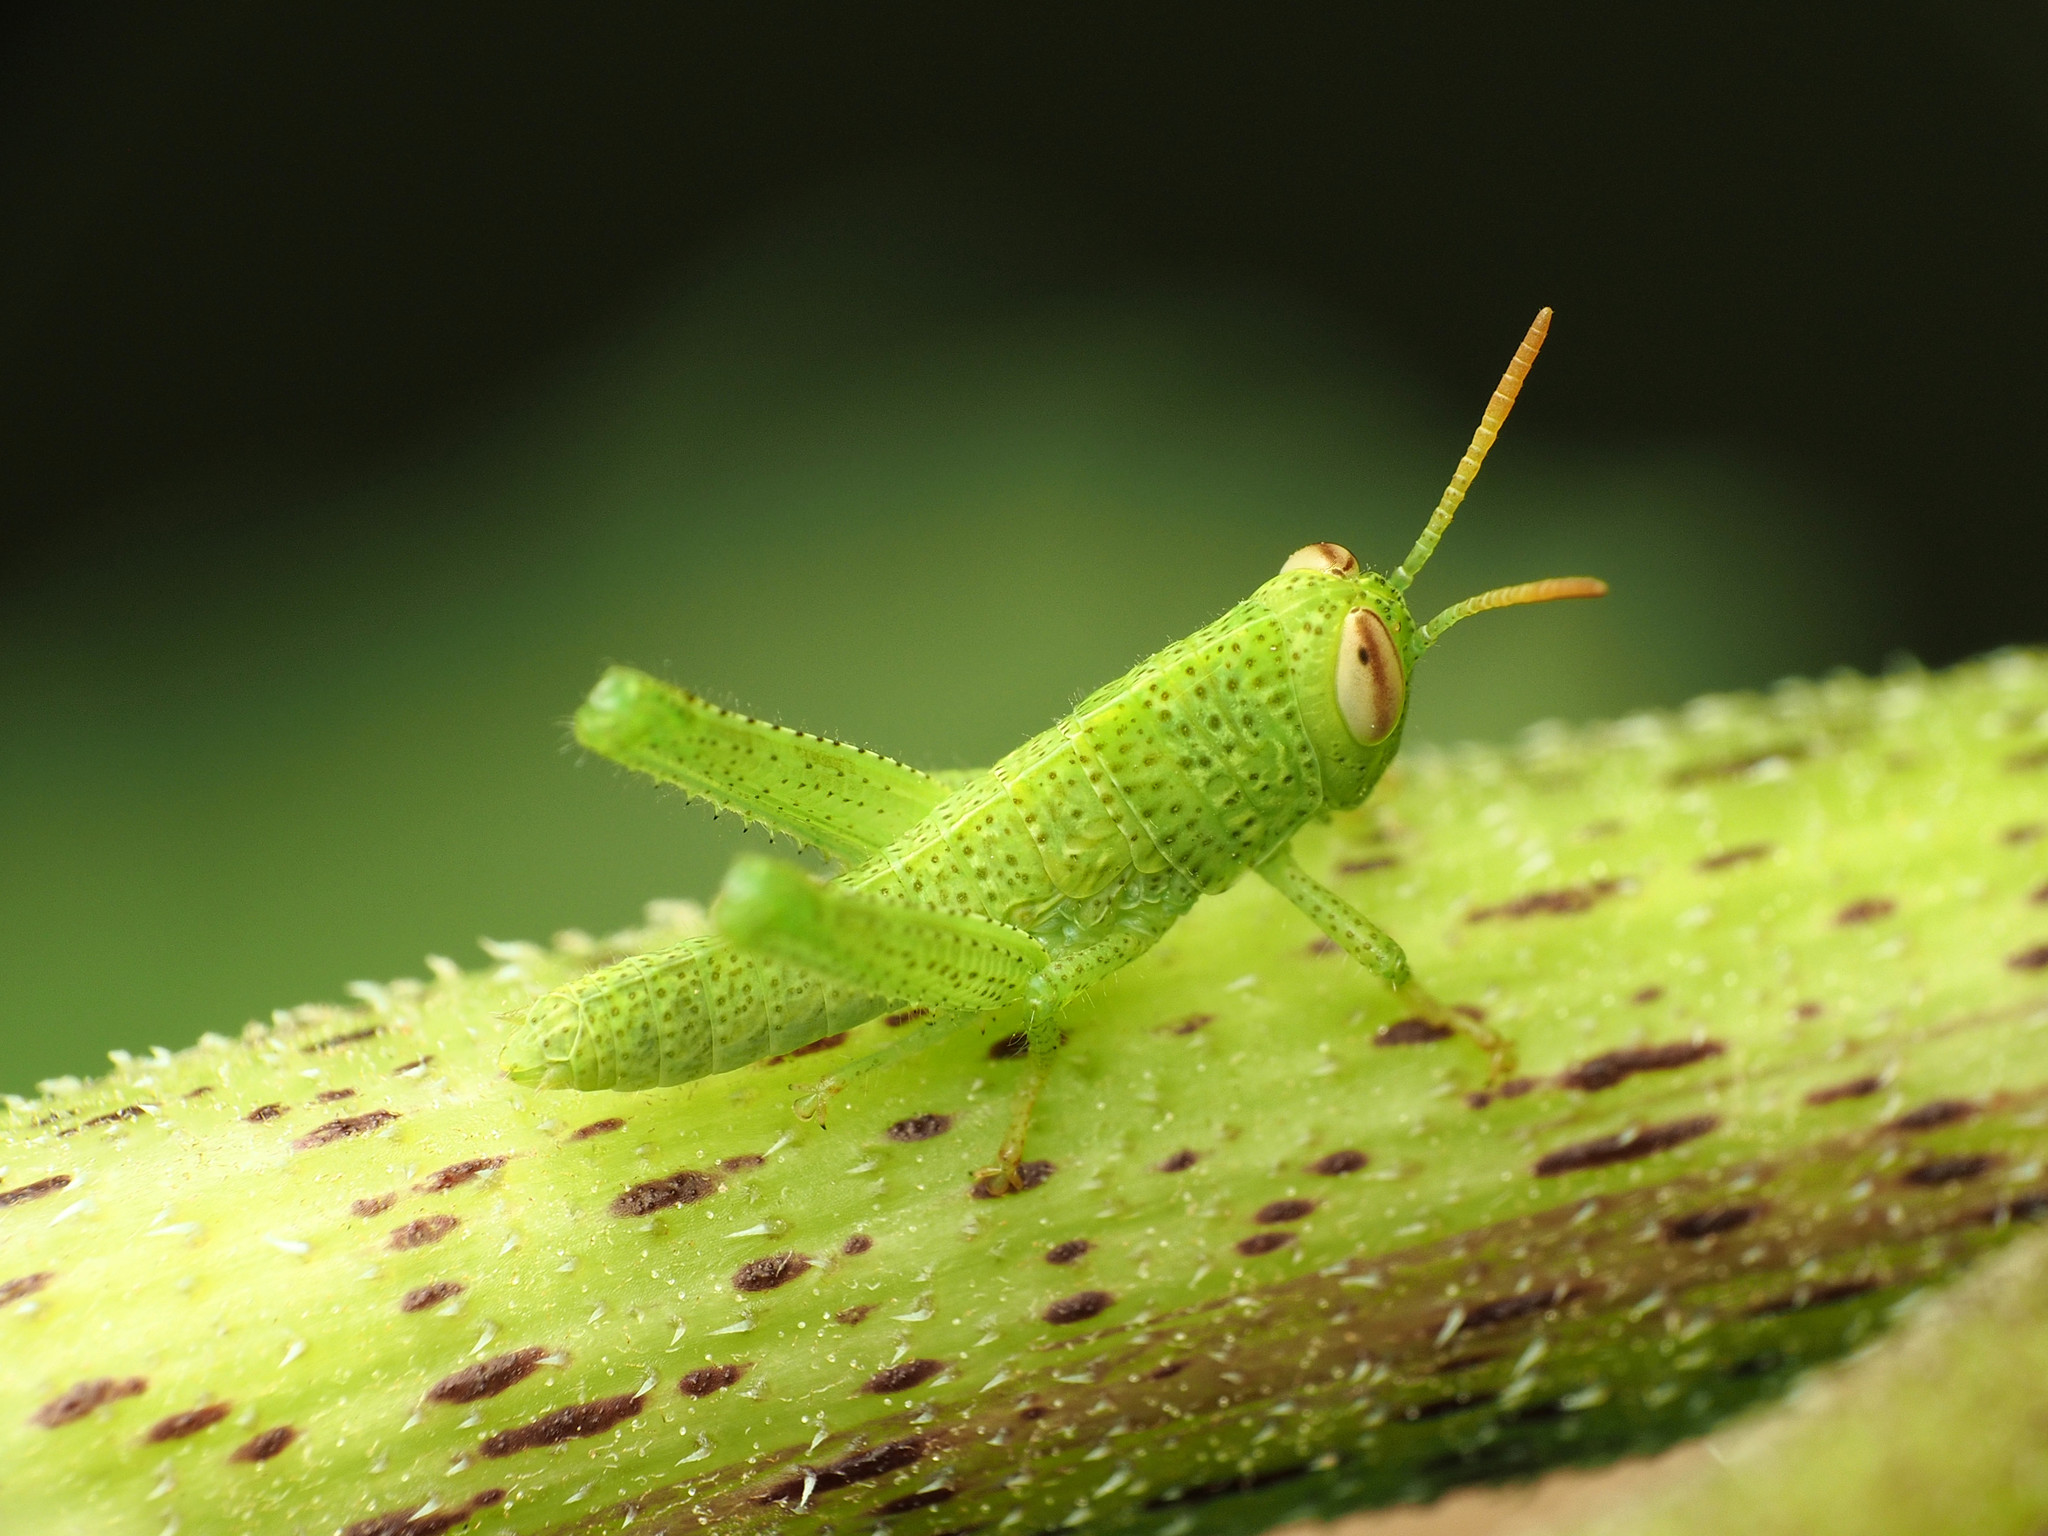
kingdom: Animalia
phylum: Arthropoda
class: Insecta
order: Orthoptera
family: Acrididae
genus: Anacridium
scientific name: Anacridium aegyptium
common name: Egyptian grasshopper
